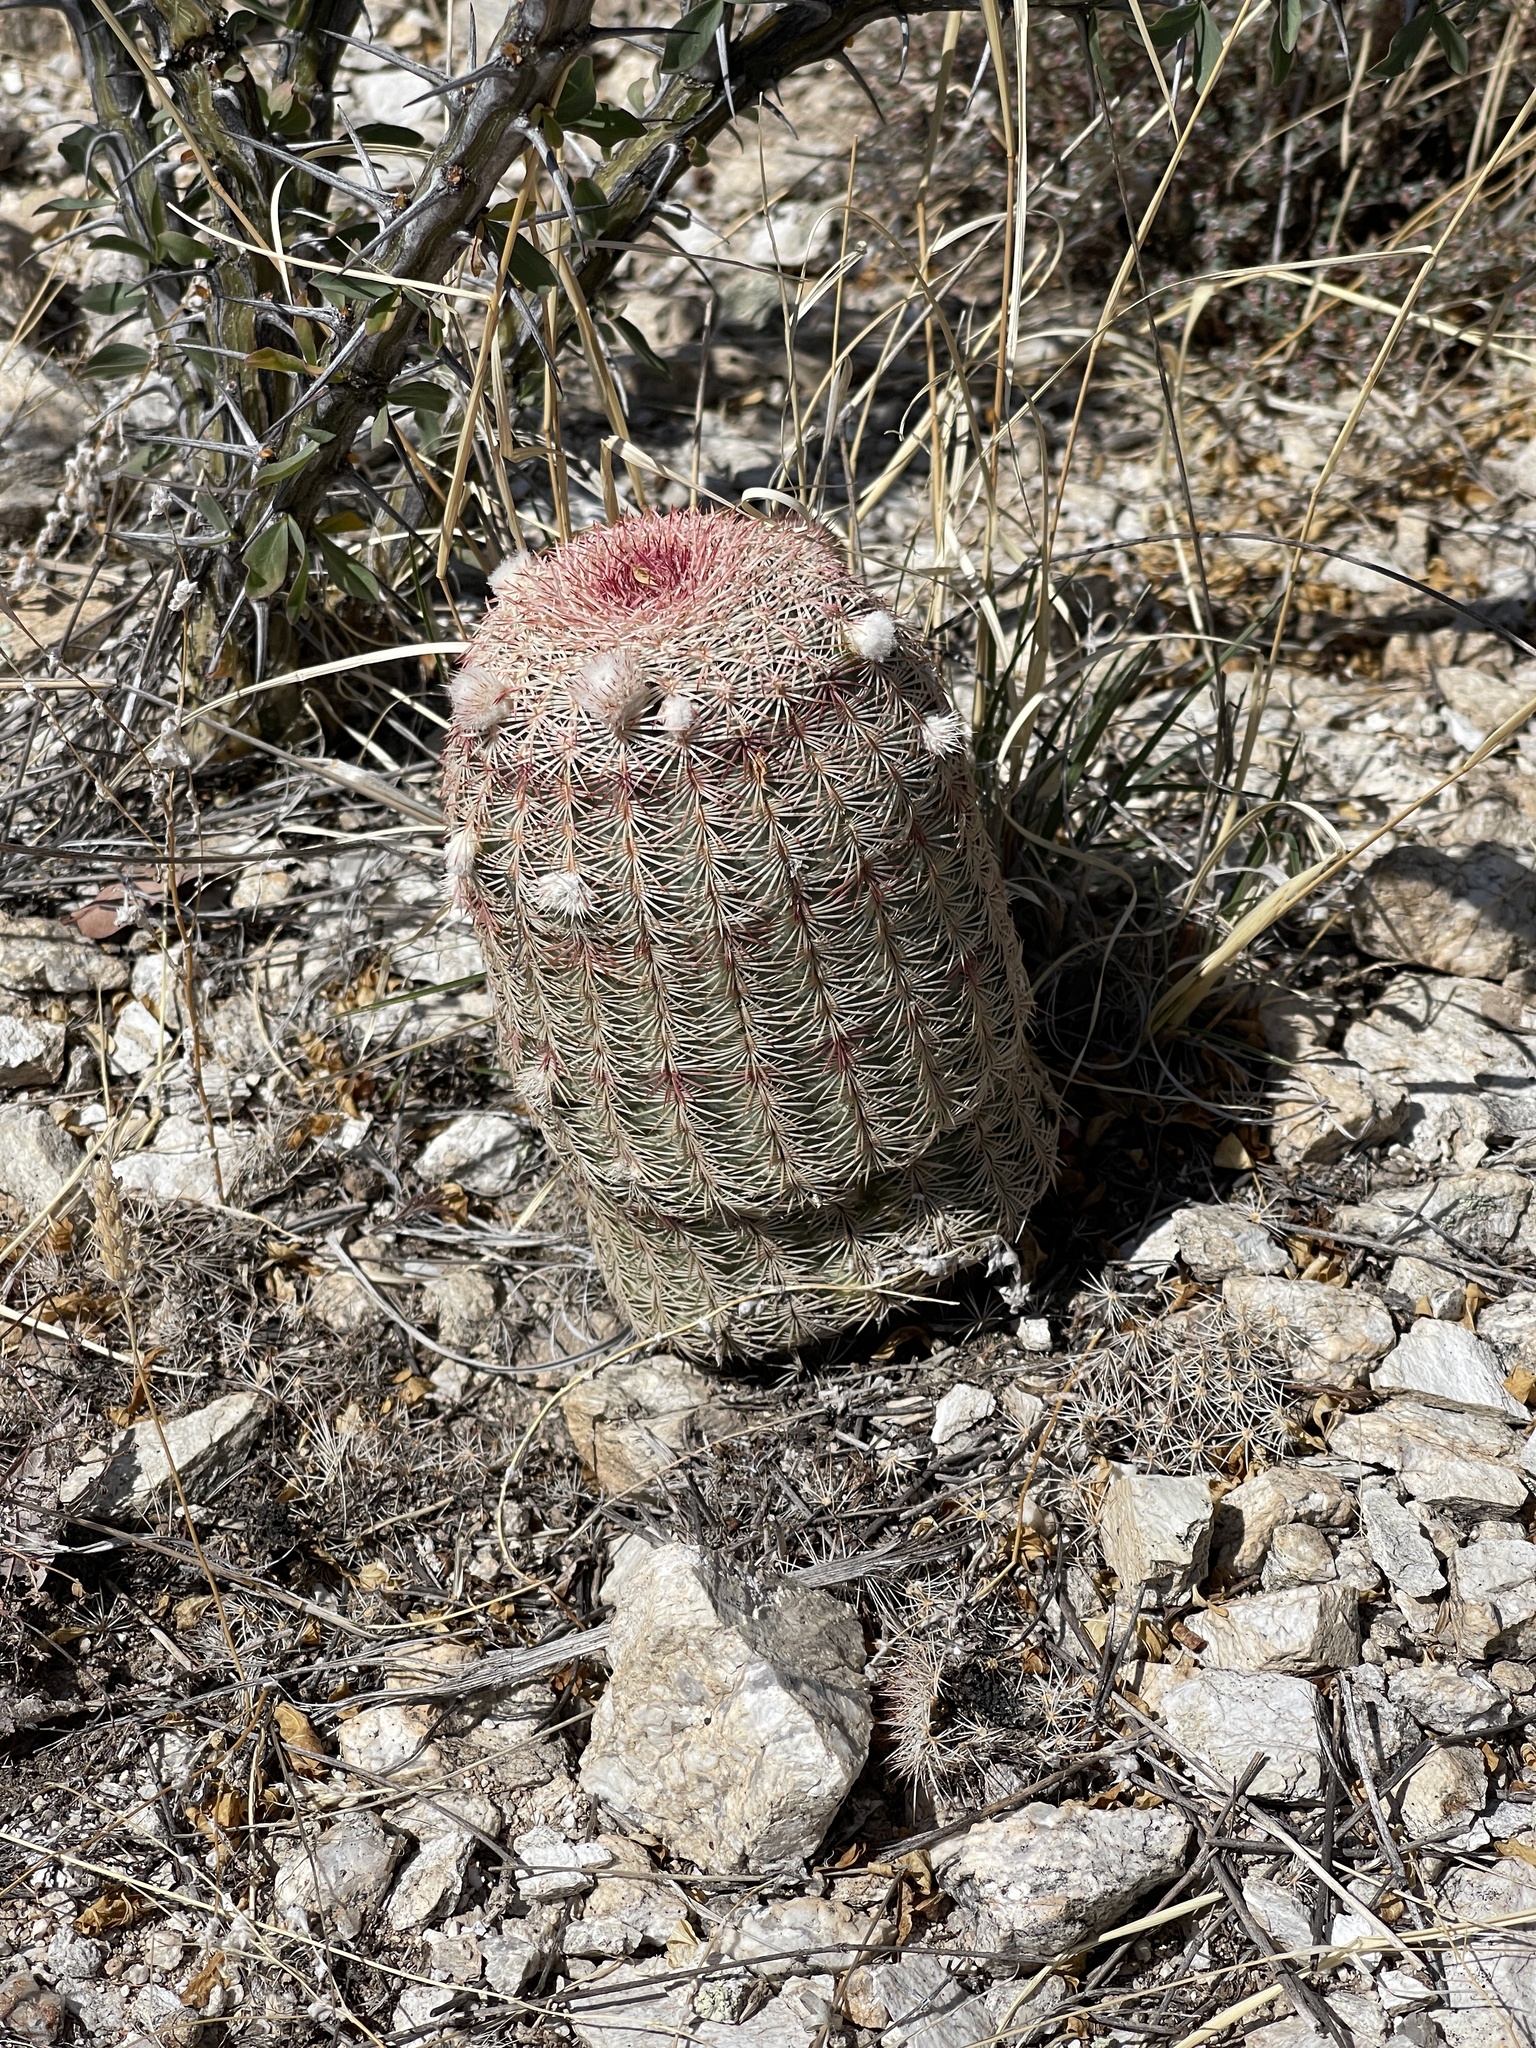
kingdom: Plantae
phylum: Tracheophyta
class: Magnoliopsida
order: Caryophyllales
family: Cactaceae
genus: Echinocereus
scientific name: Echinocereus rigidissimus
